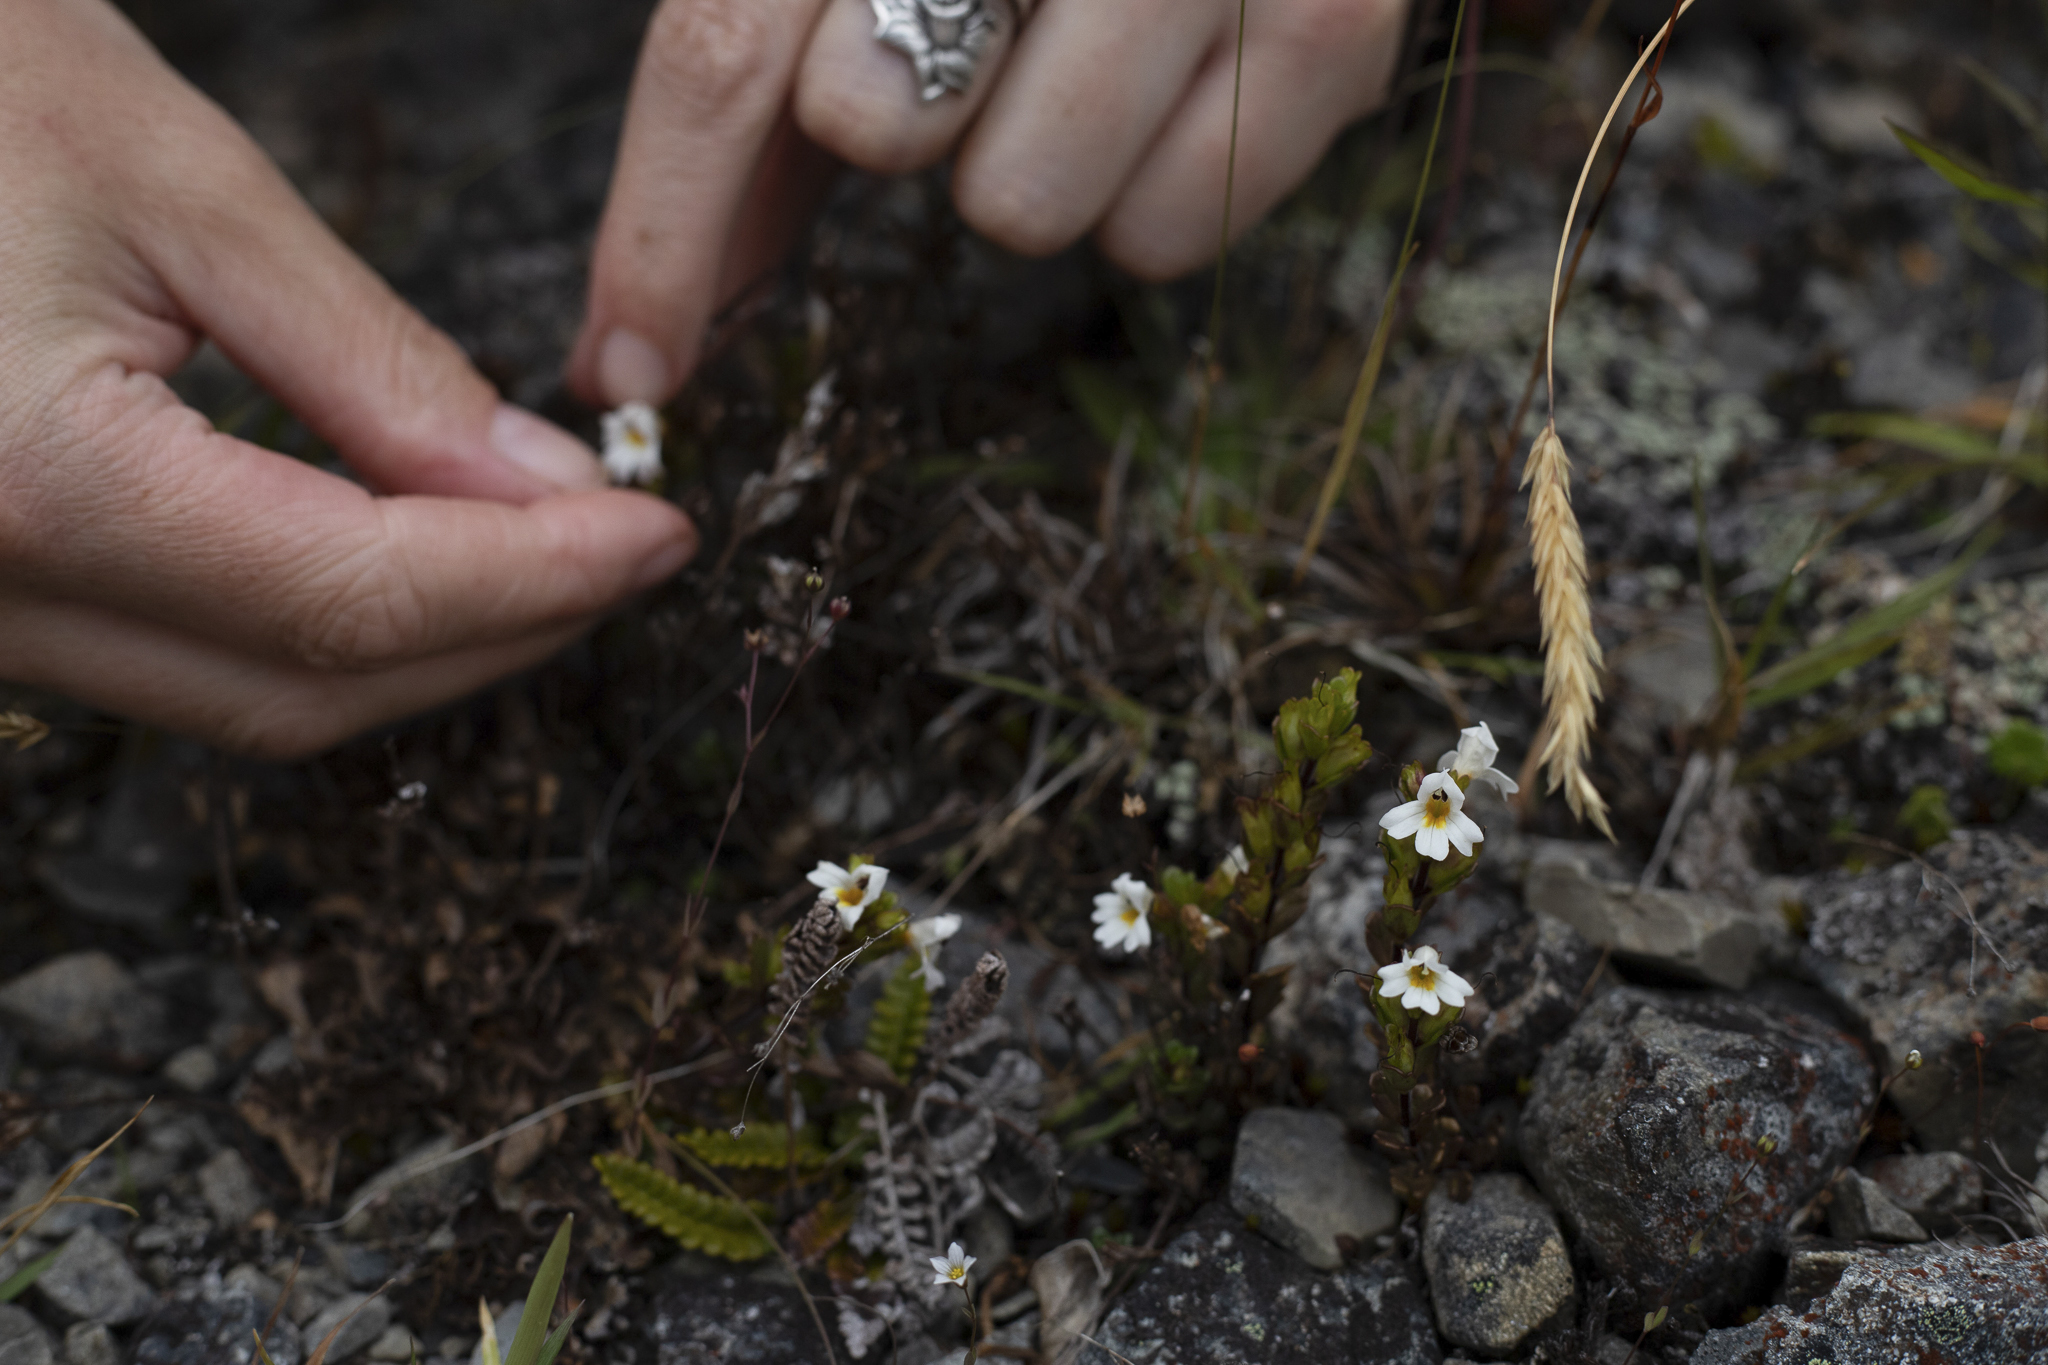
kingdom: Plantae
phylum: Tracheophyta
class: Magnoliopsida
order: Lamiales
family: Orobanchaceae
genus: Euphrasia
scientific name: Euphrasia laingii
